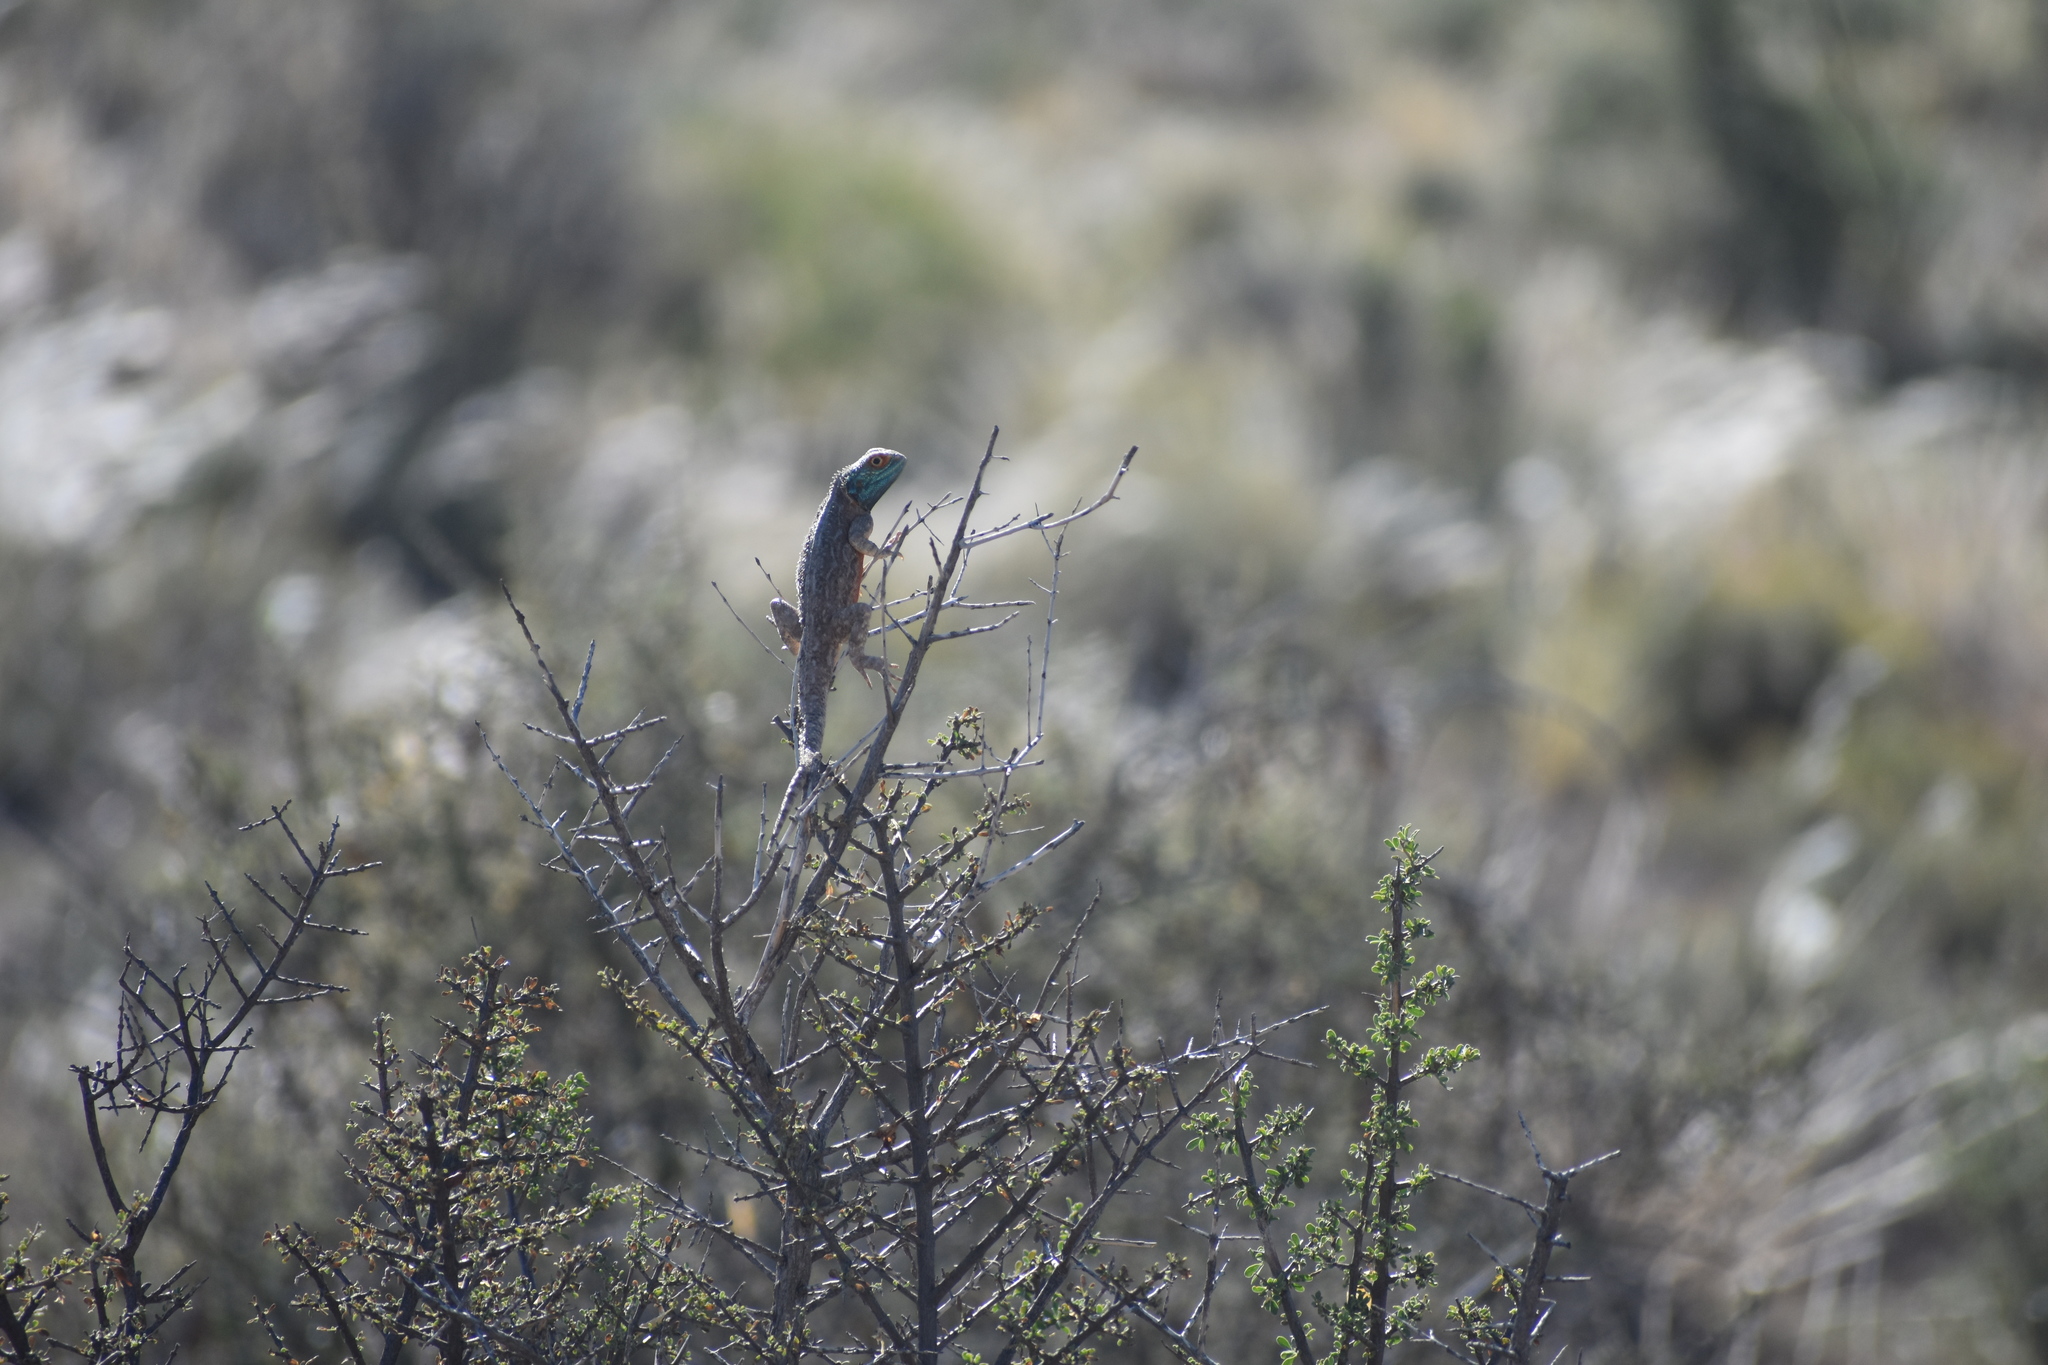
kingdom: Animalia
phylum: Chordata
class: Squamata
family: Agamidae
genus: Agama
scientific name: Agama aculeata
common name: Common ground agama
